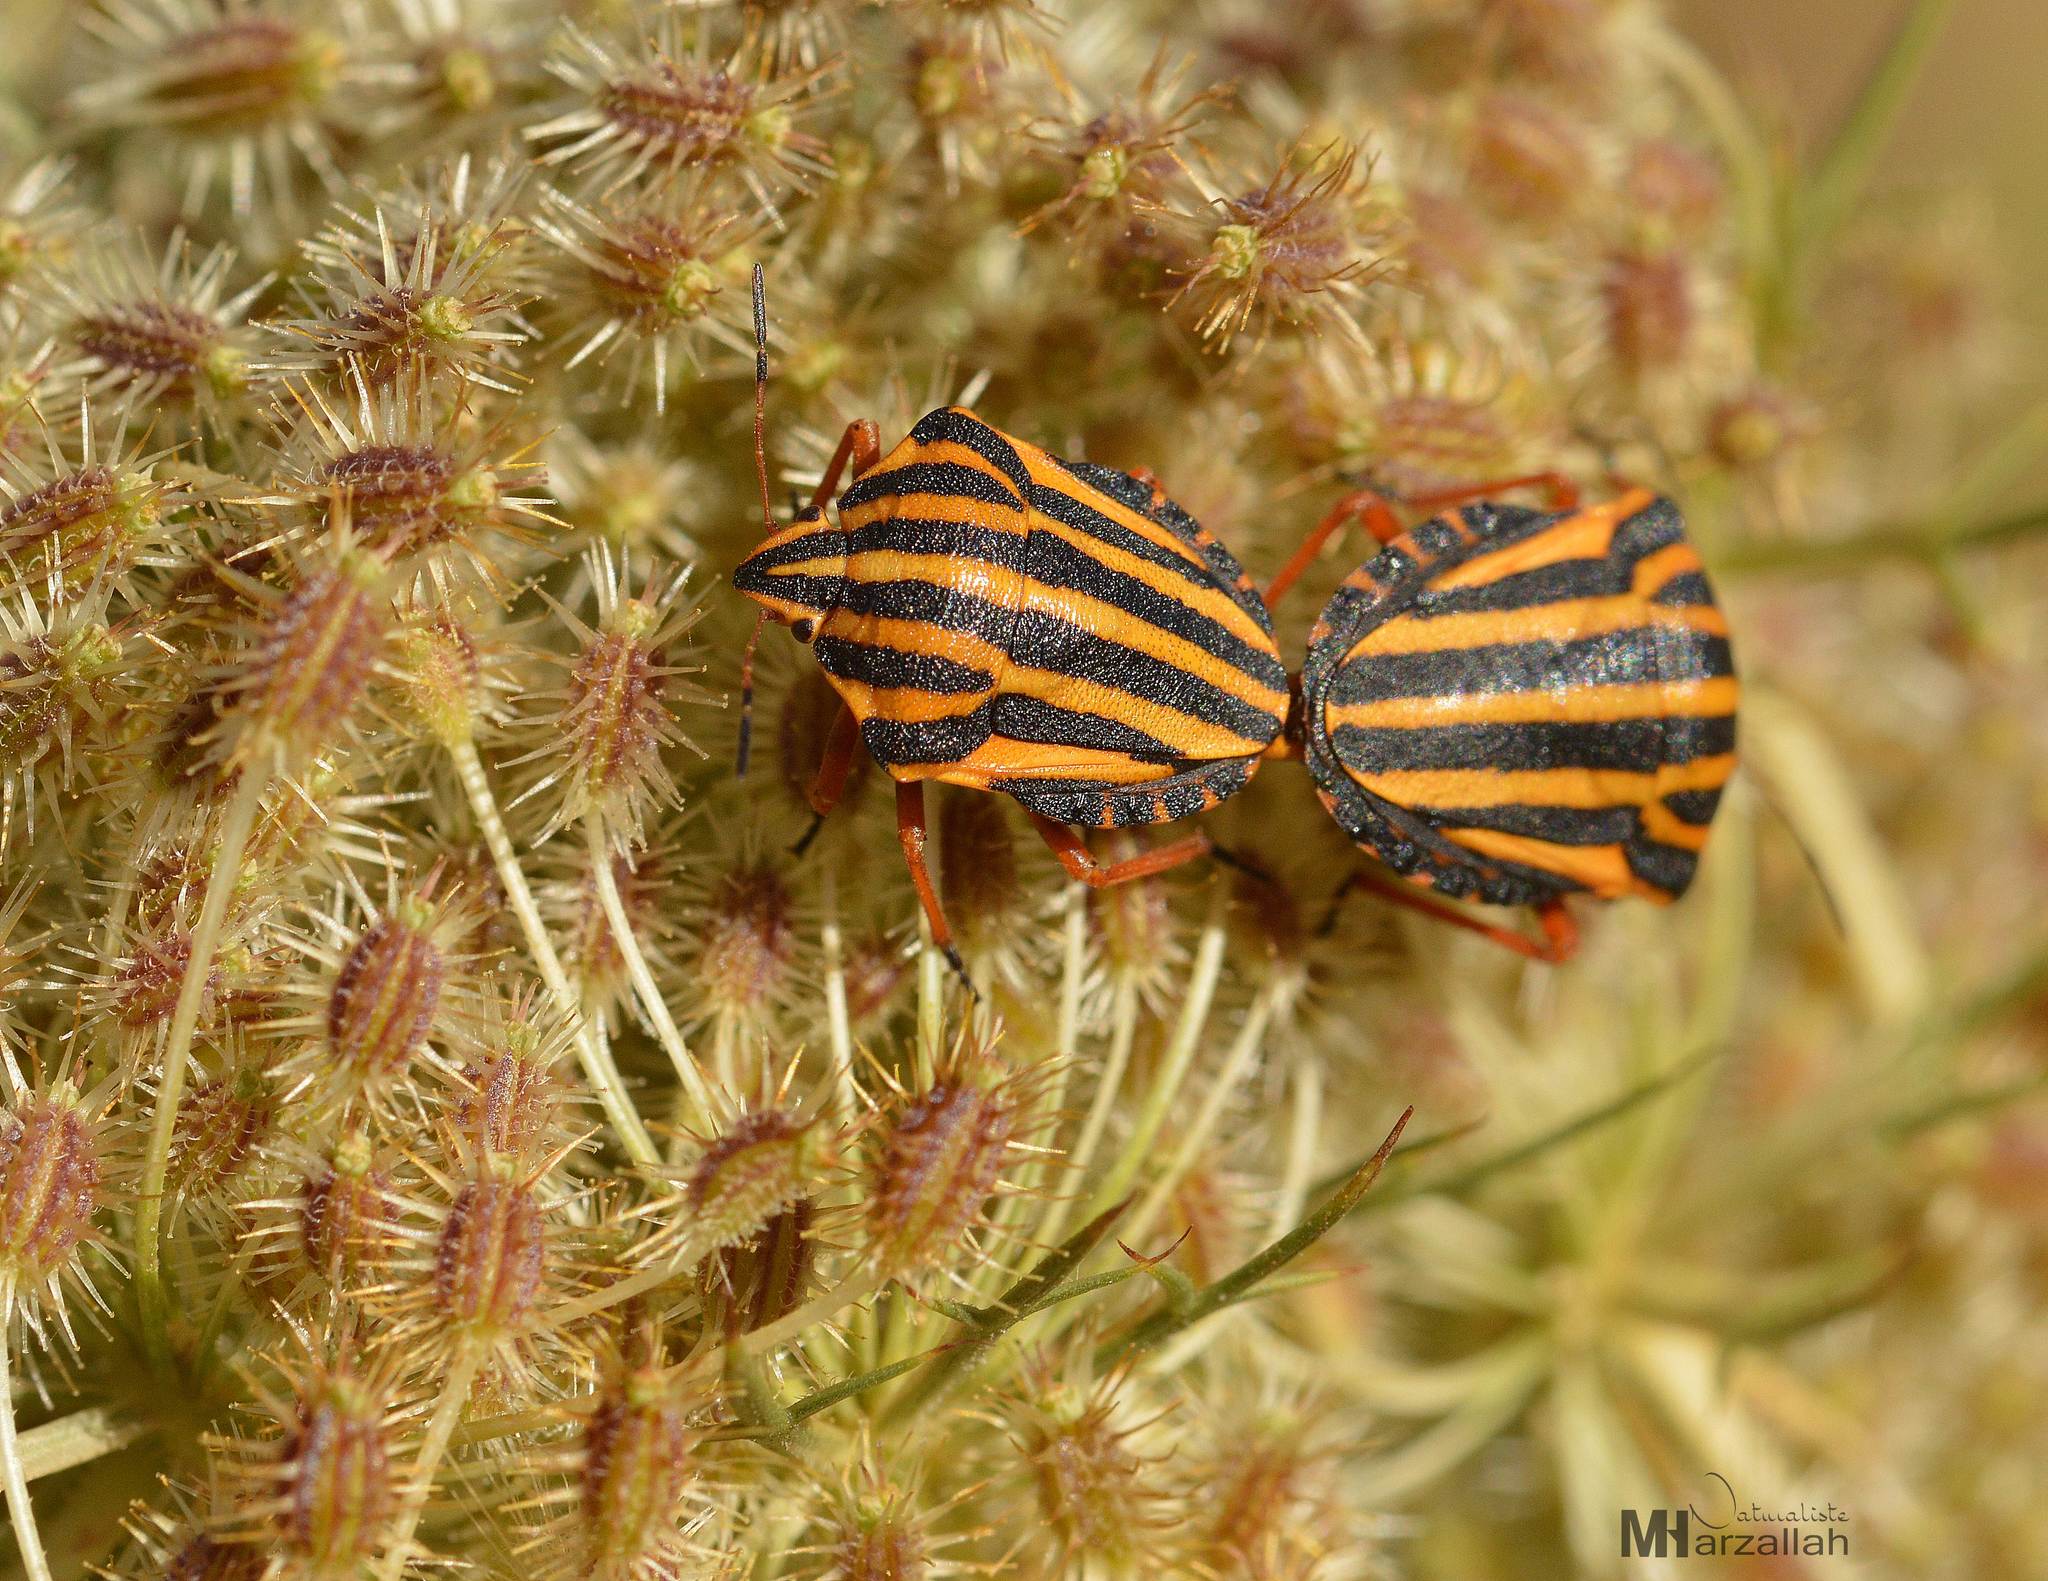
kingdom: Animalia
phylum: Arthropoda
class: Insecta
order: Hemiptera
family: Pentatomidae
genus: Graphosoma
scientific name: Graphosoma lineatum
